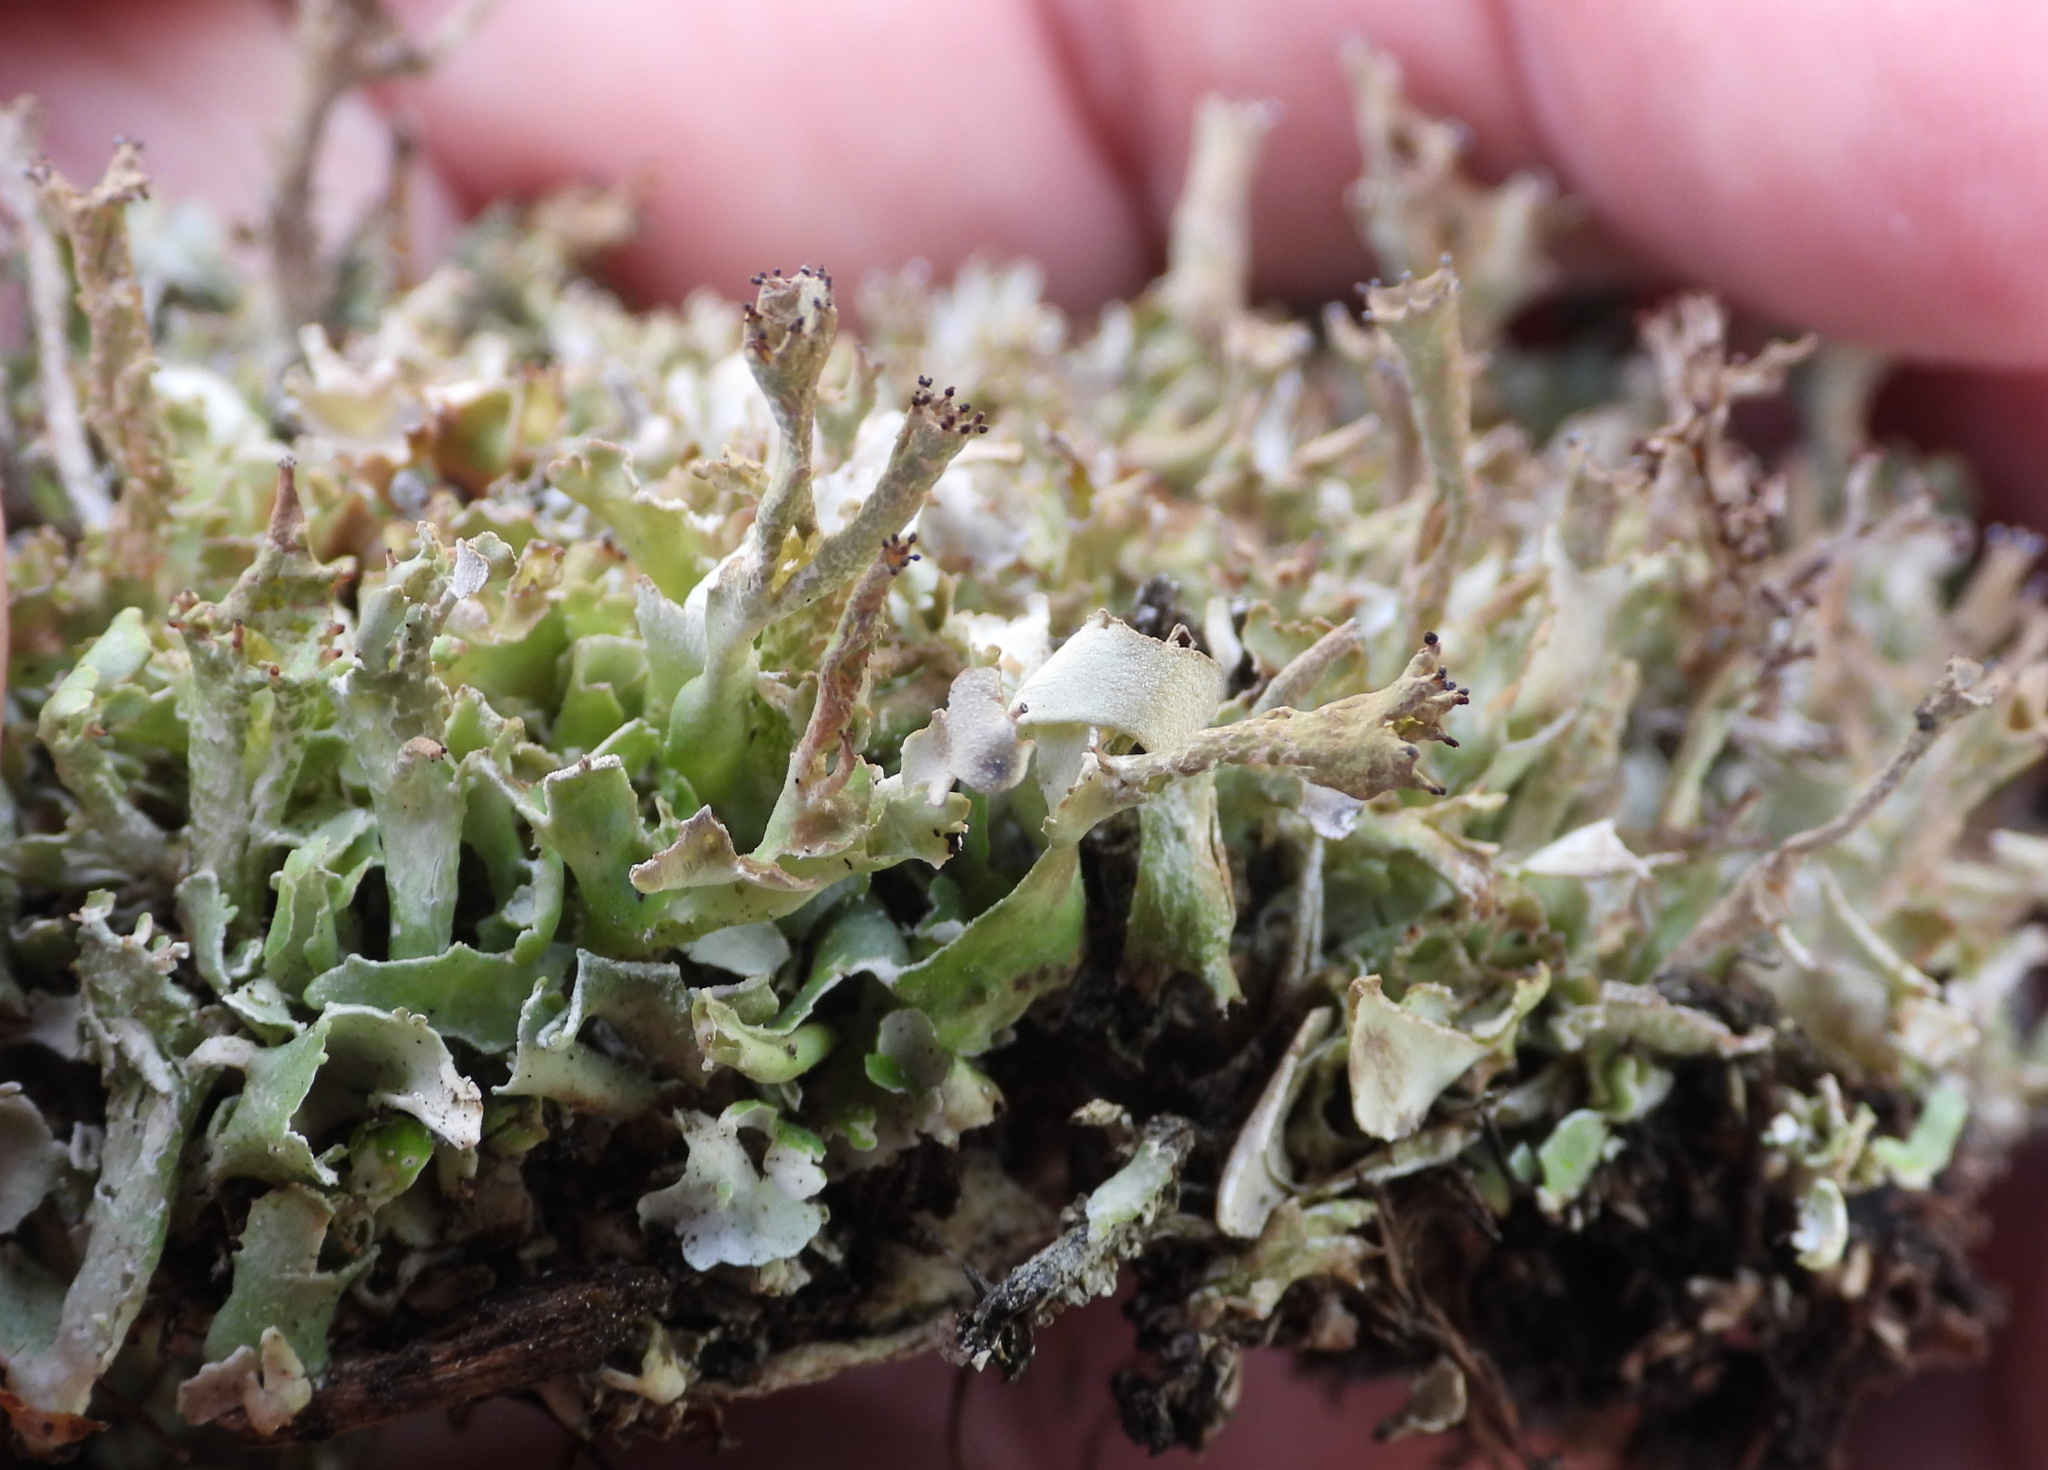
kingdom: Fungi
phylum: Ascomycota
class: Lecanoromycetes
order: Lecanorales
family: Cladoniaceae
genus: Cladonia
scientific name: Cladonia turgida
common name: Crazy scale lichen
